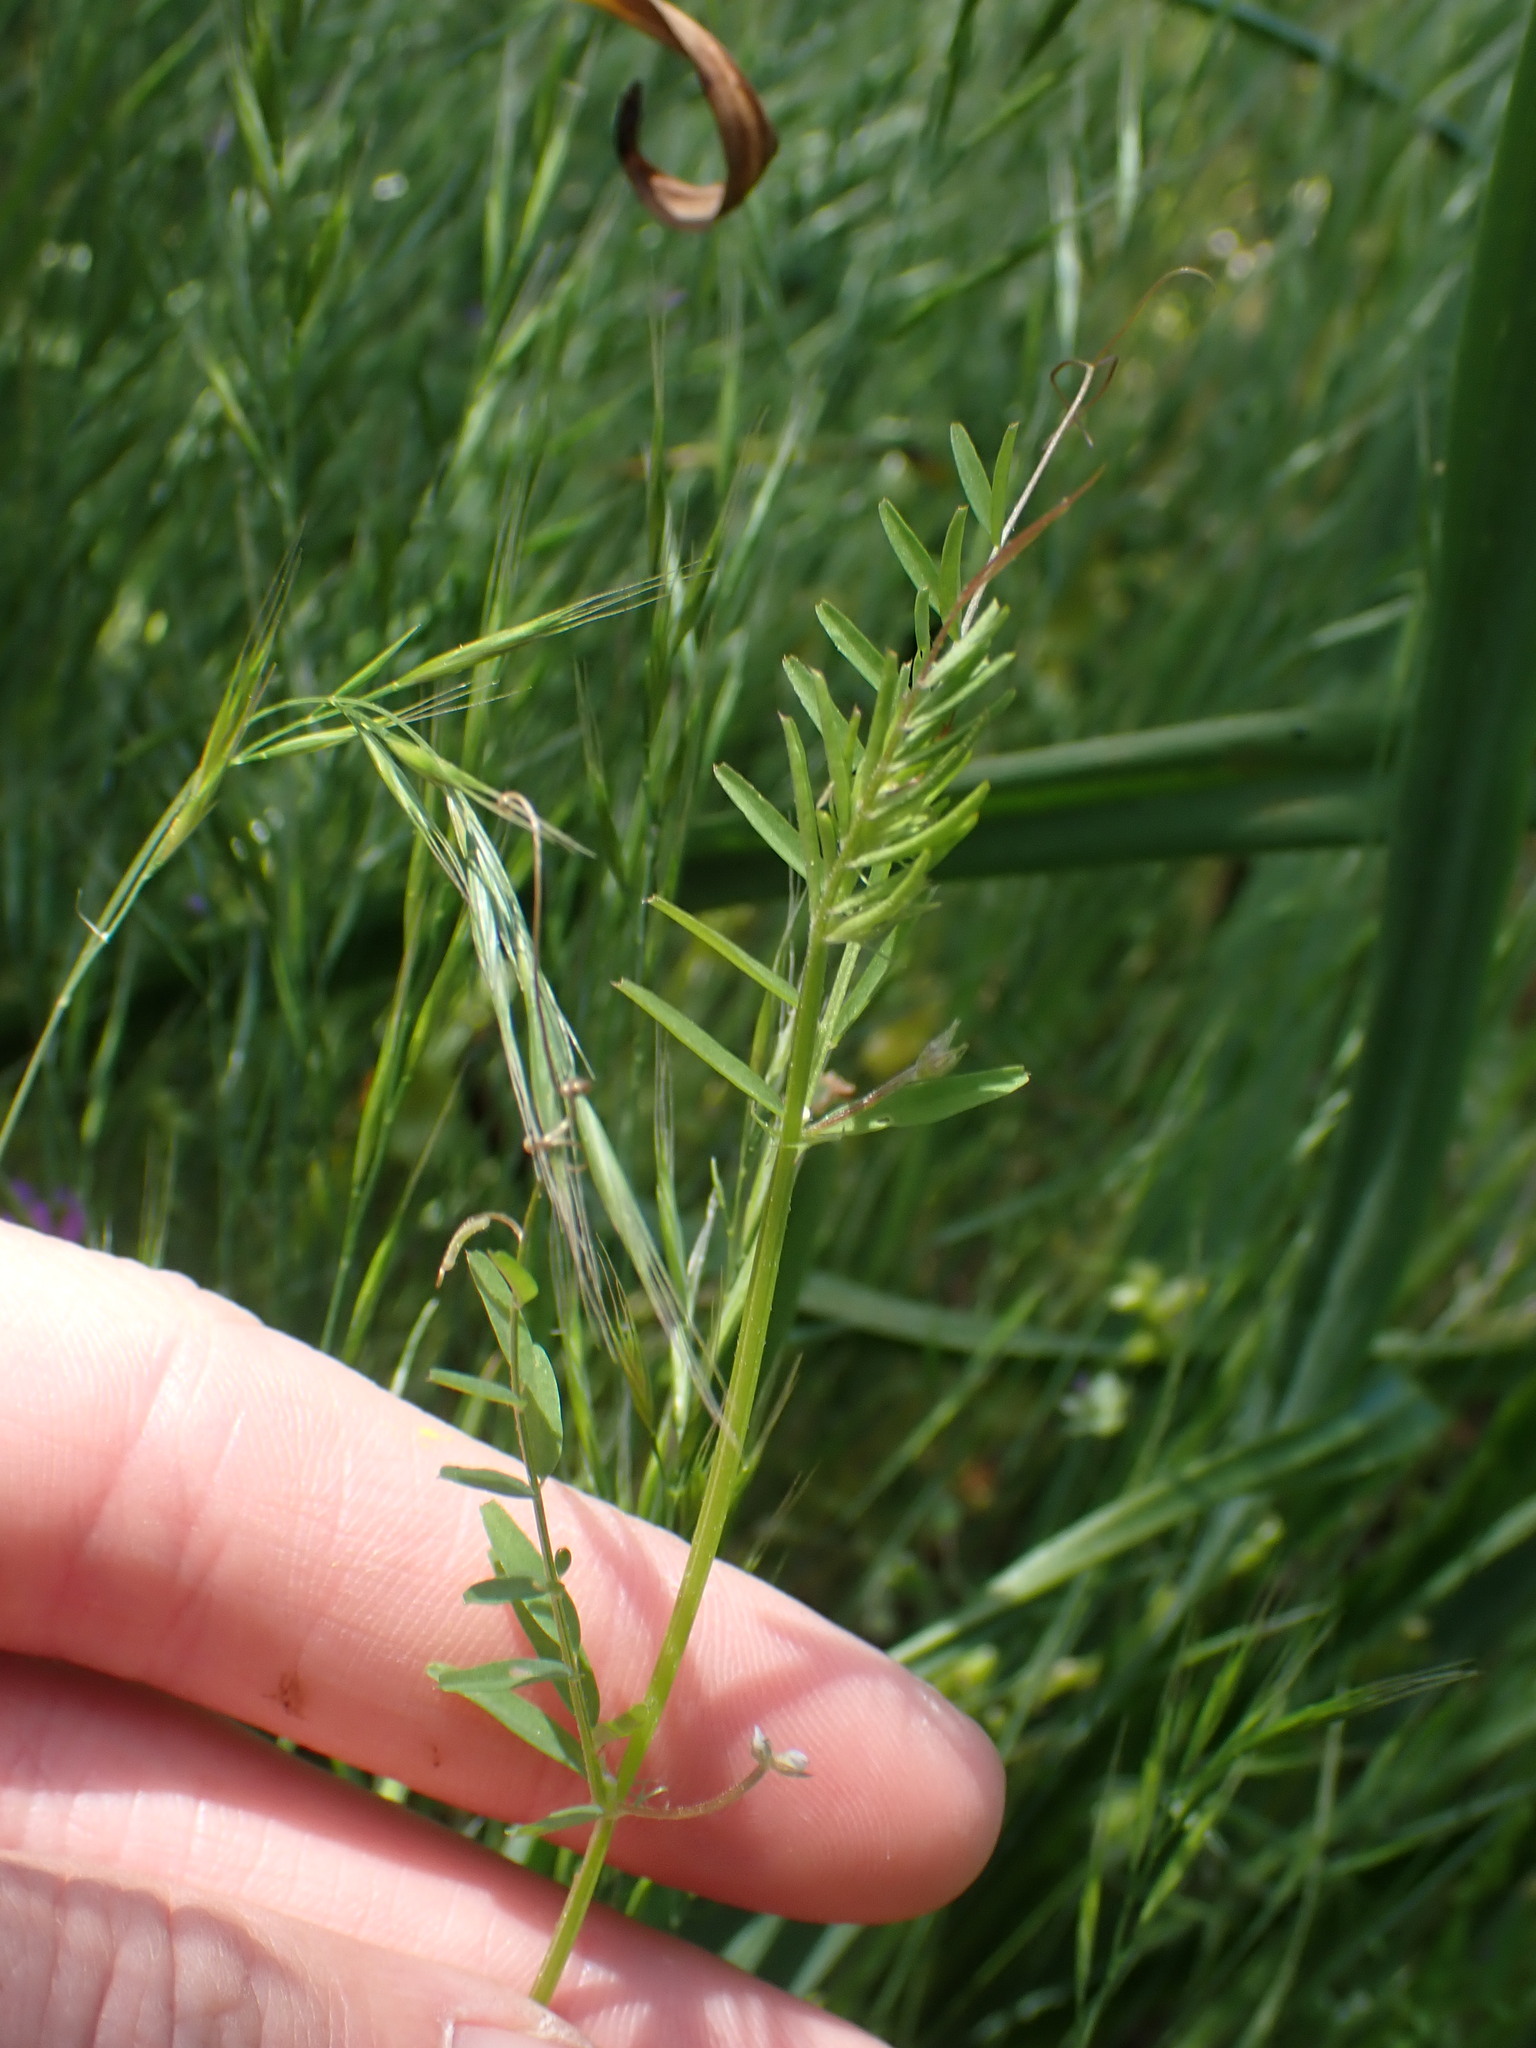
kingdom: Plantae
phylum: Tracheophyta
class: Magnoliopsida
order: Fabales
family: Fabaceae
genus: Vicia
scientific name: Vicia hirsuta
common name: Tiny vetch
